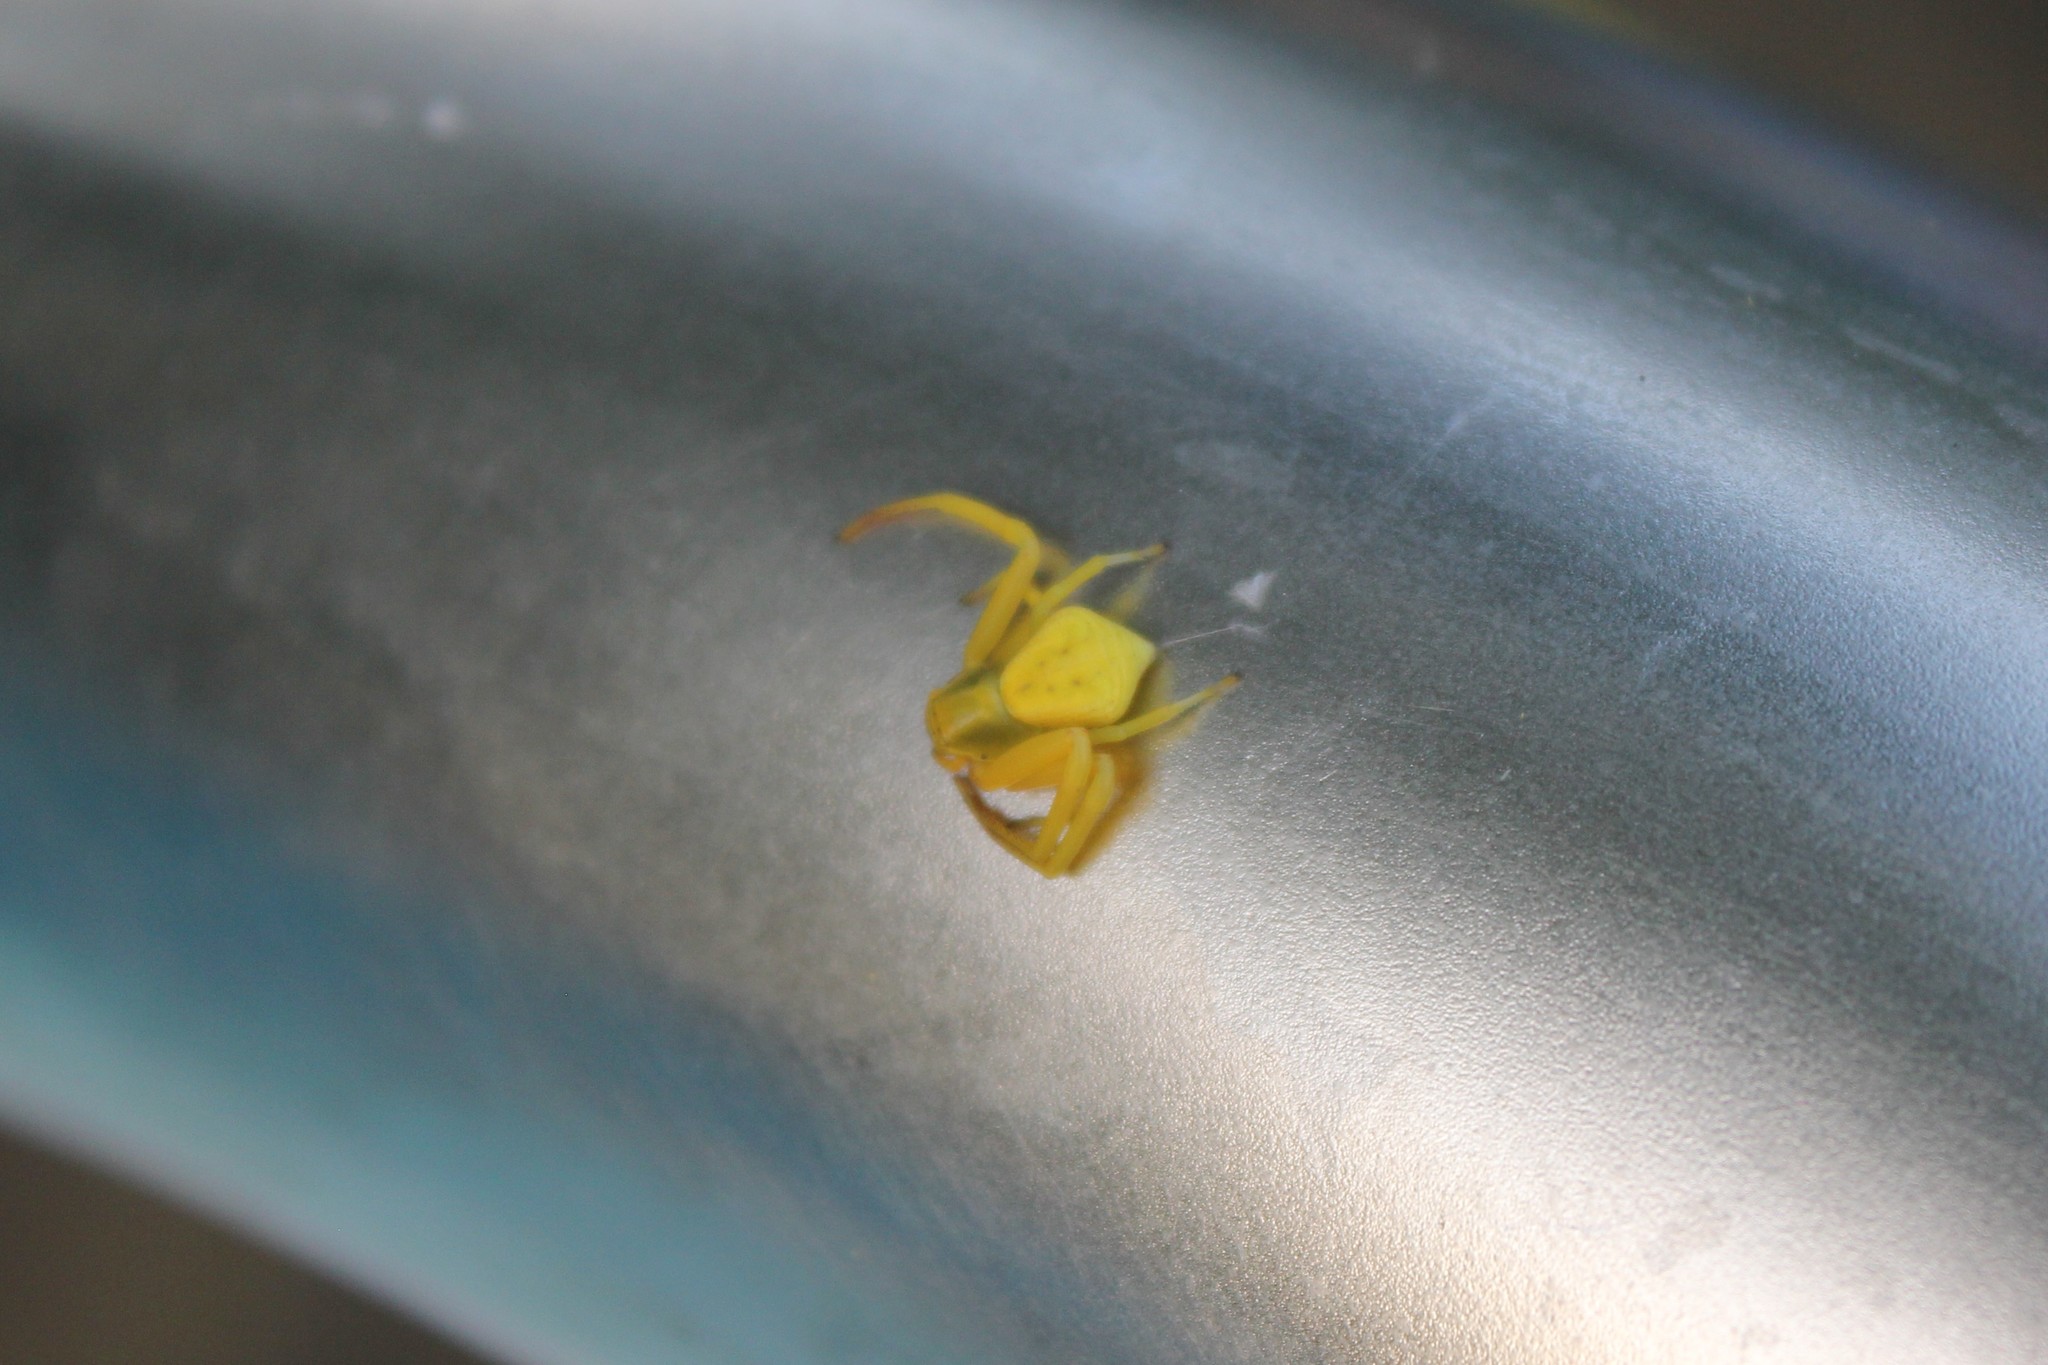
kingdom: Animalia
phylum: Arthropoda
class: Arachnida
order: Araneae
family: Thomisidae
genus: Misumenoides
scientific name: Misumenoides formosipes
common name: White-banded crab spider
